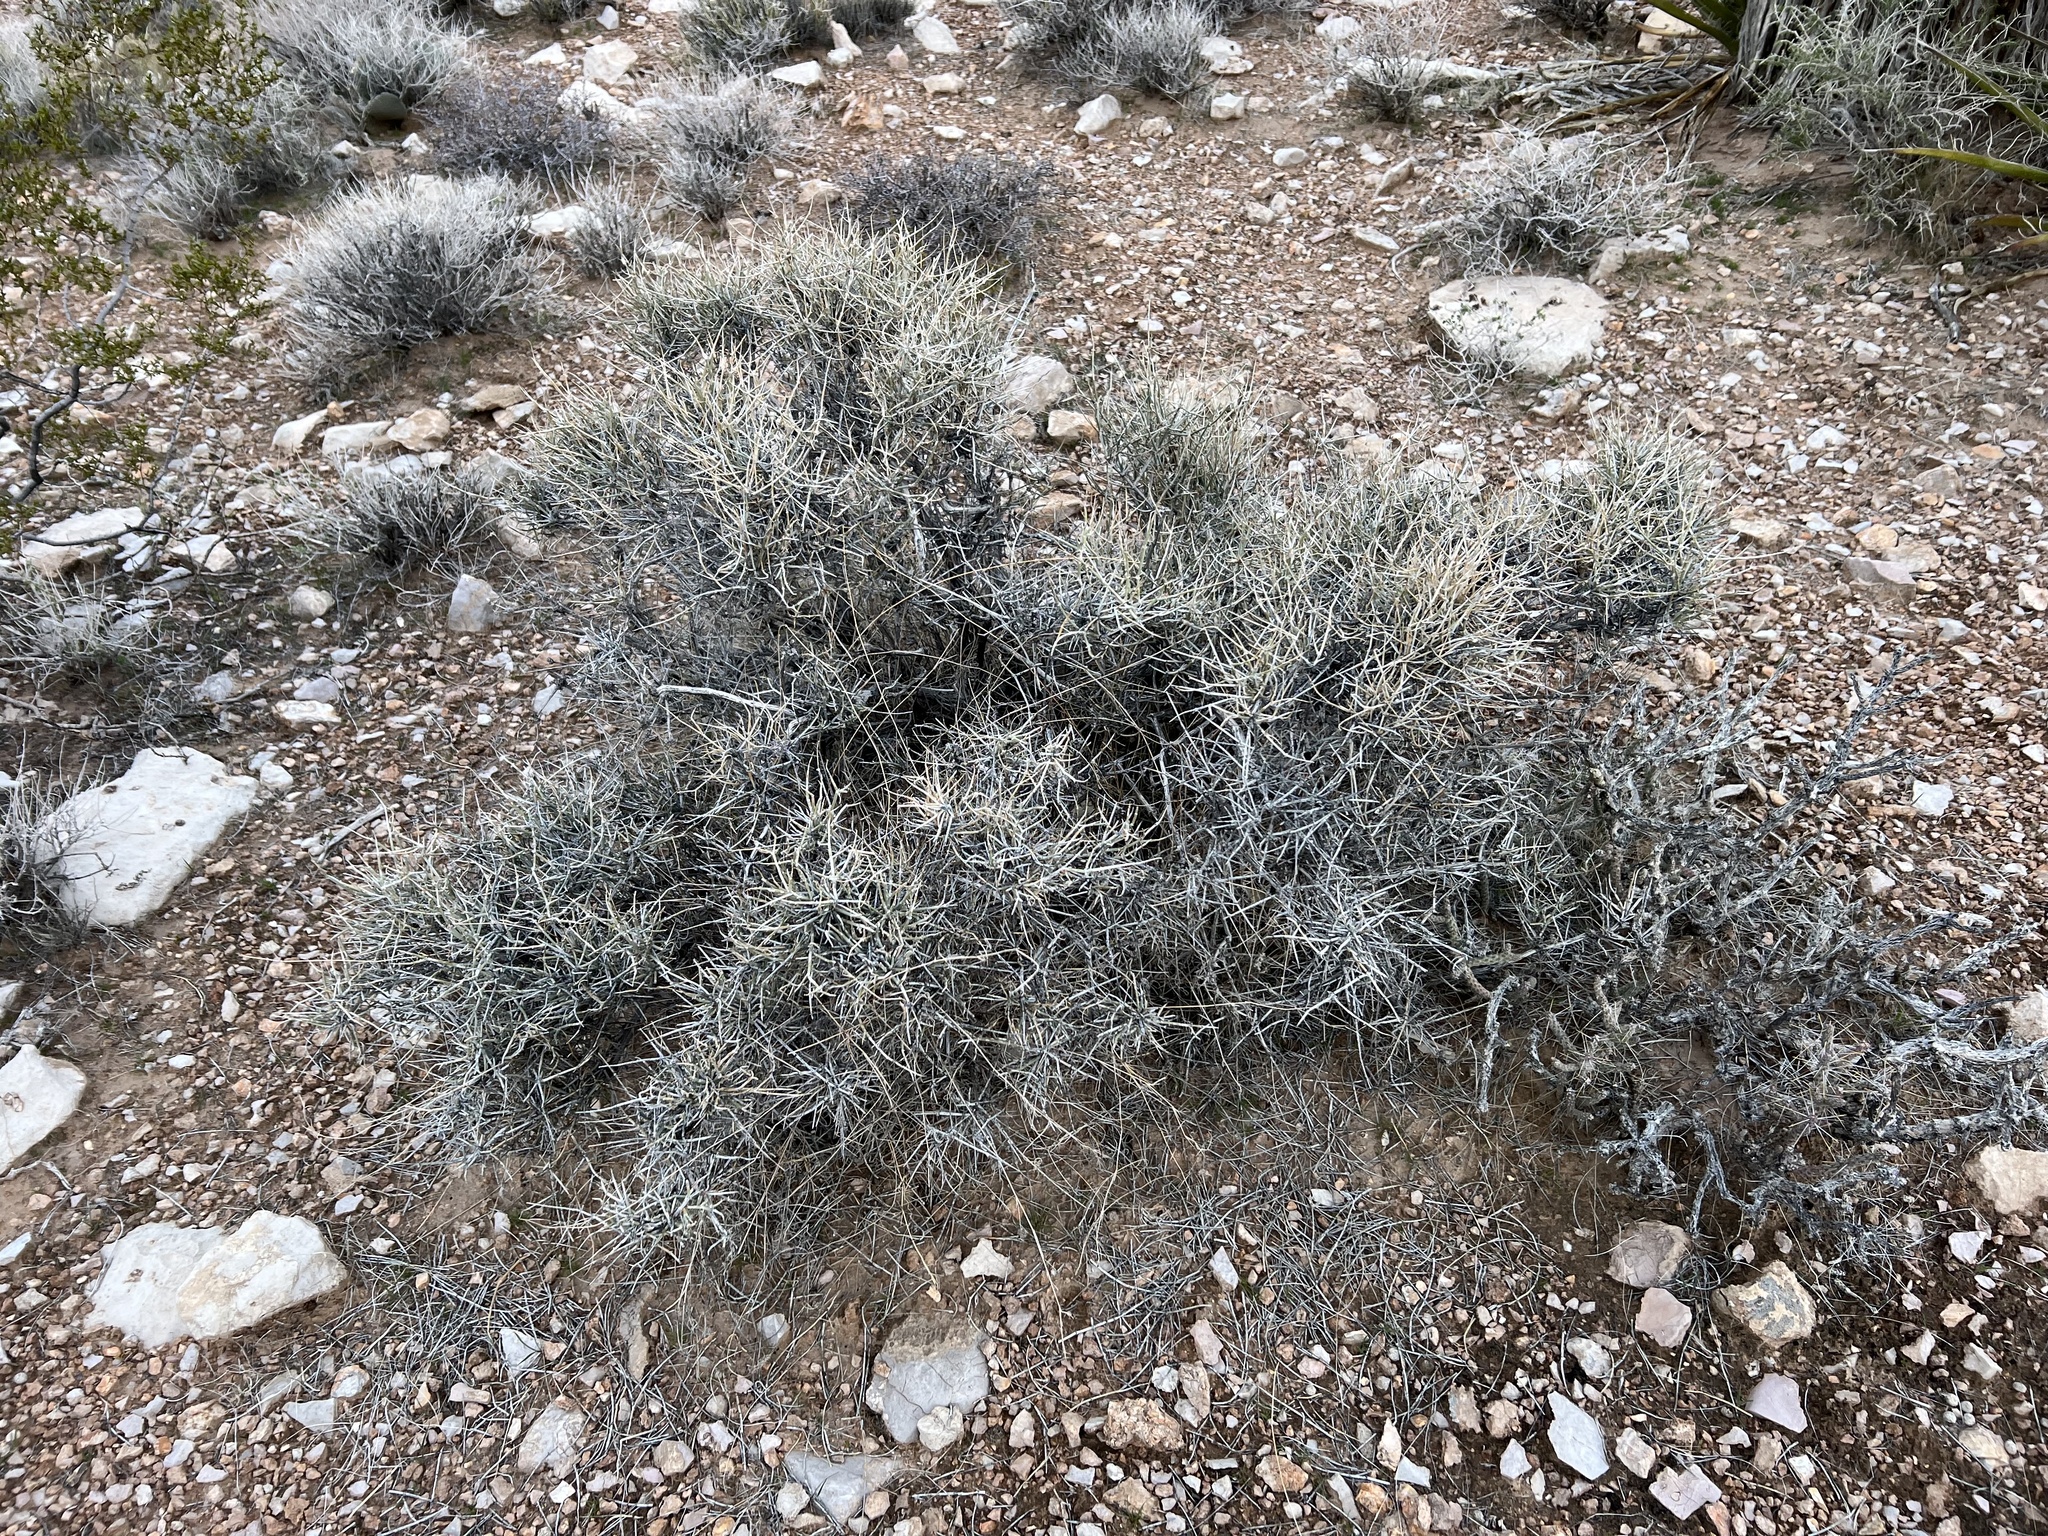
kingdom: Plantae
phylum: Tracheophyta
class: Gnetopsida
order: Ephedrales
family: Ephedraceae
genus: Ephedra
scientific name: Ephedra nevadensis
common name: Gray ephedra
